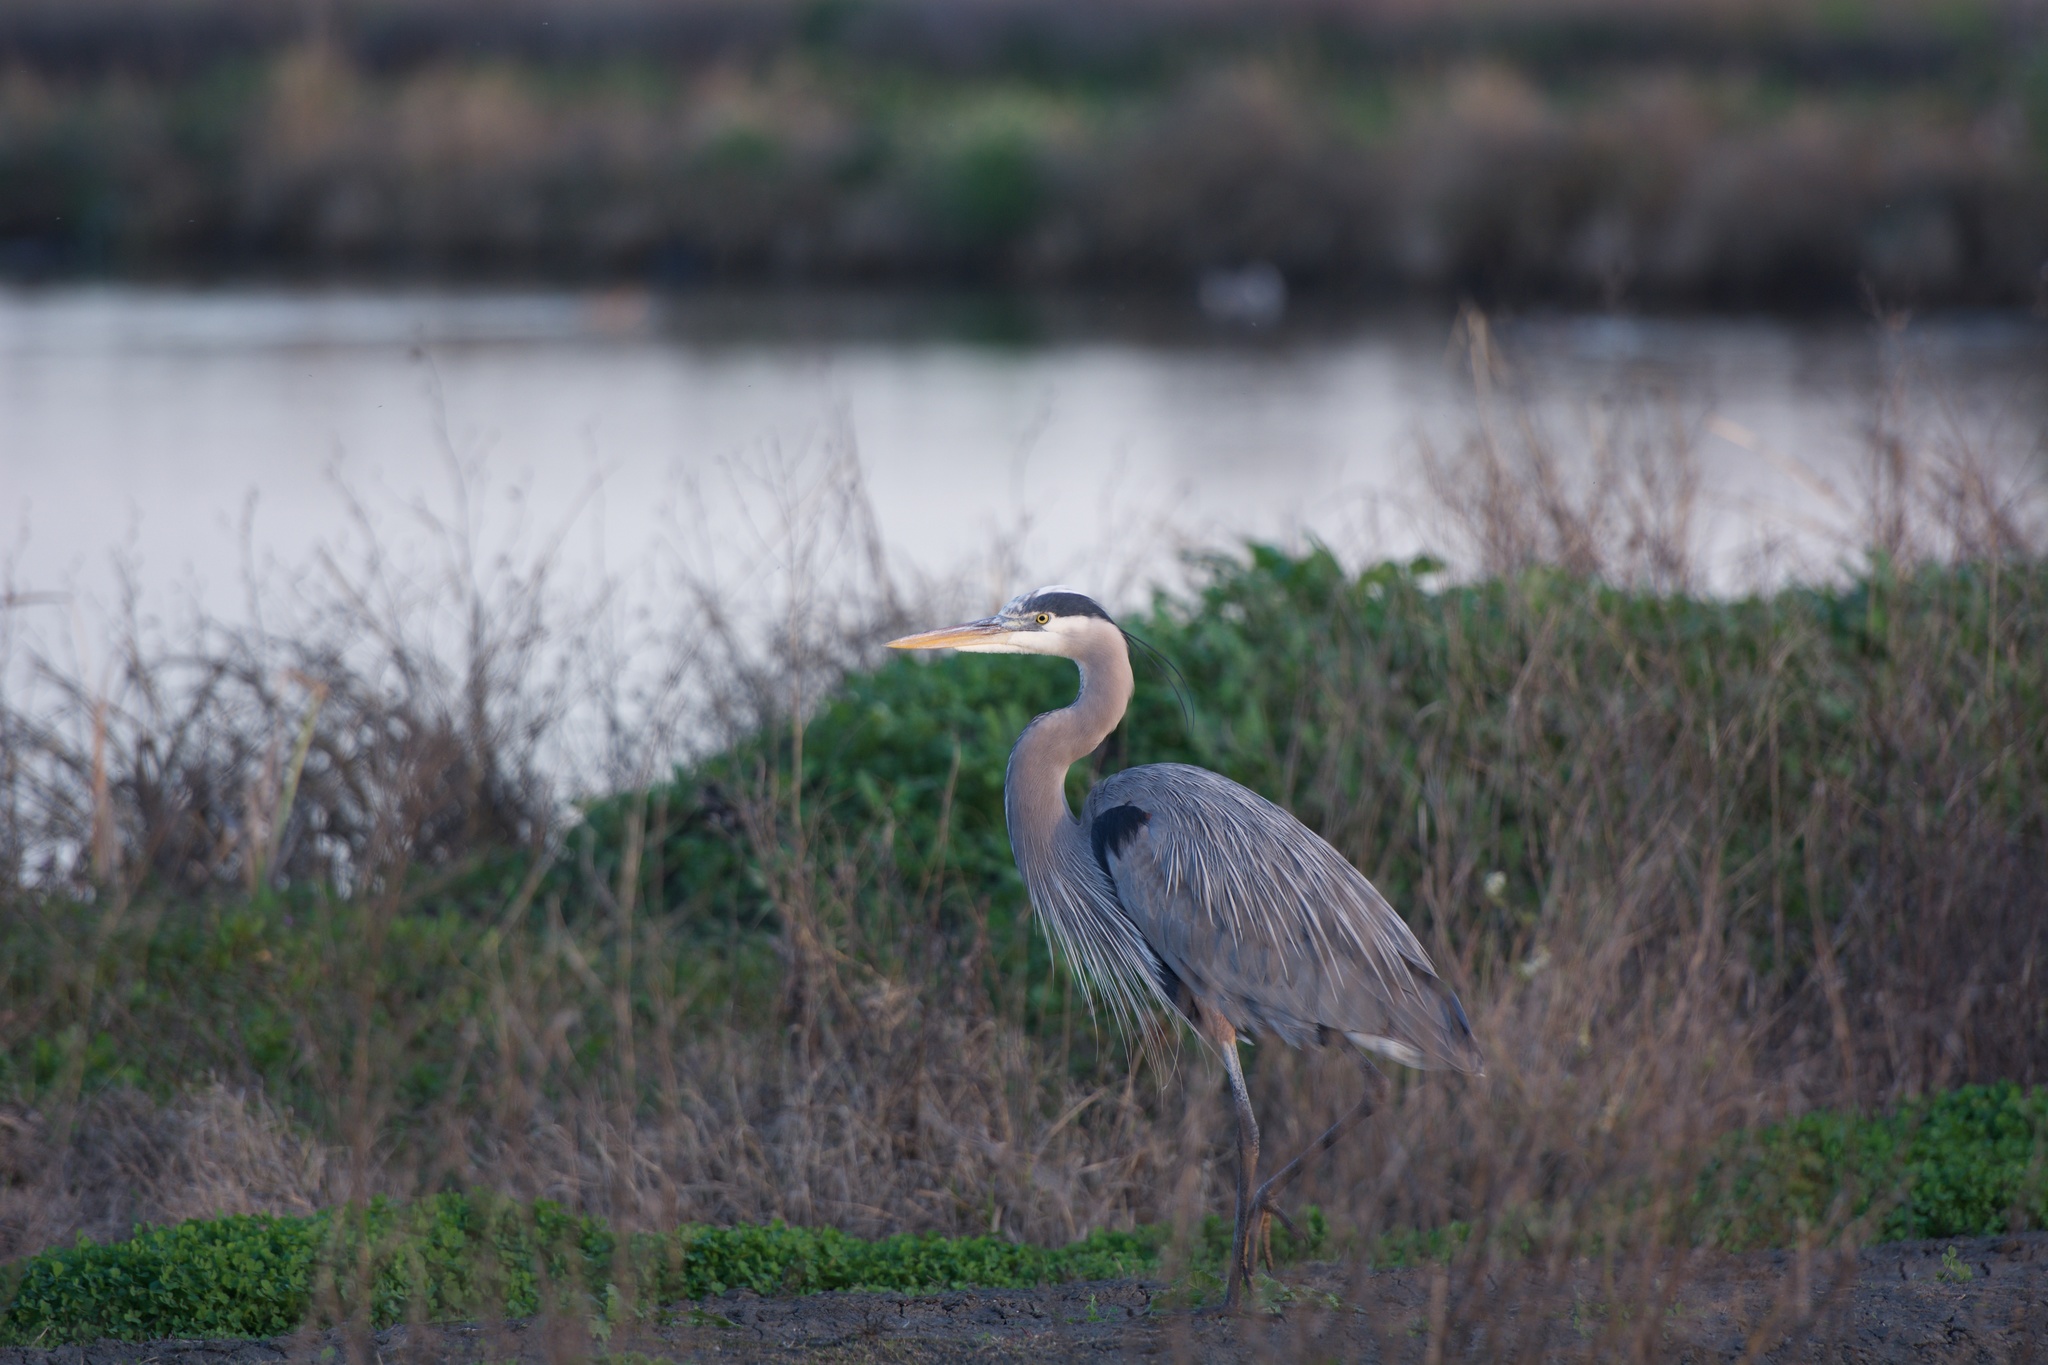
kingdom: Animalia
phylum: Chordata
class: Aves
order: Pelecaniformes
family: Ardeidae
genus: Ardea
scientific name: Ardea herodias
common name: Great blue heron
